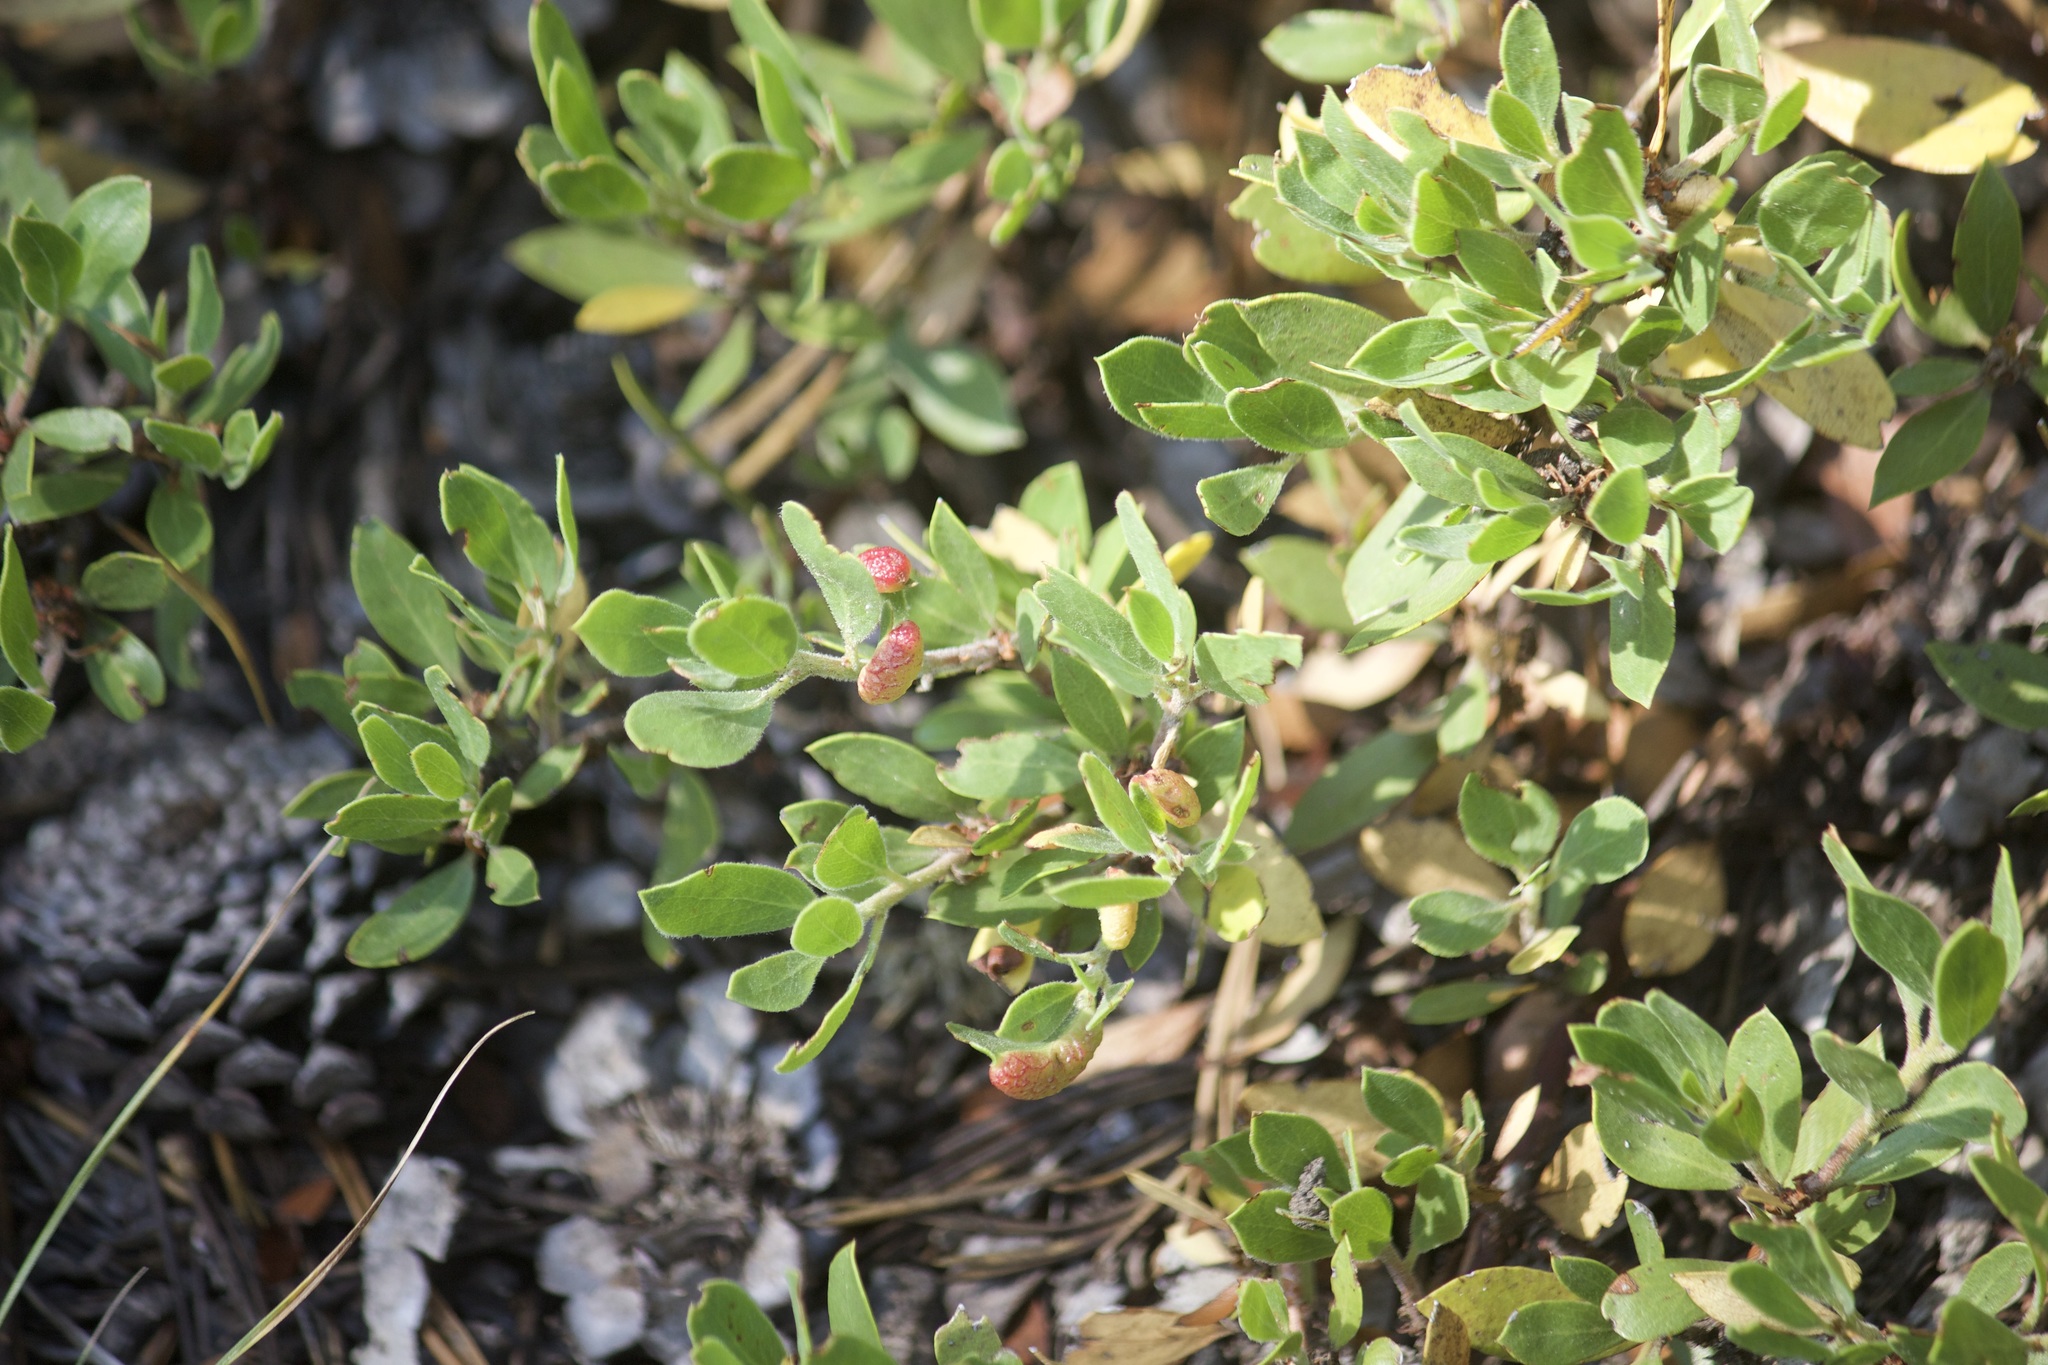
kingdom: Plantae
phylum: Tracheophyta
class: Magnoliopsida
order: Ericales
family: Ericaceae
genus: Arctostaphylos
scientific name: Arctostaphylos nevadensis
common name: Pinemat manzanita
